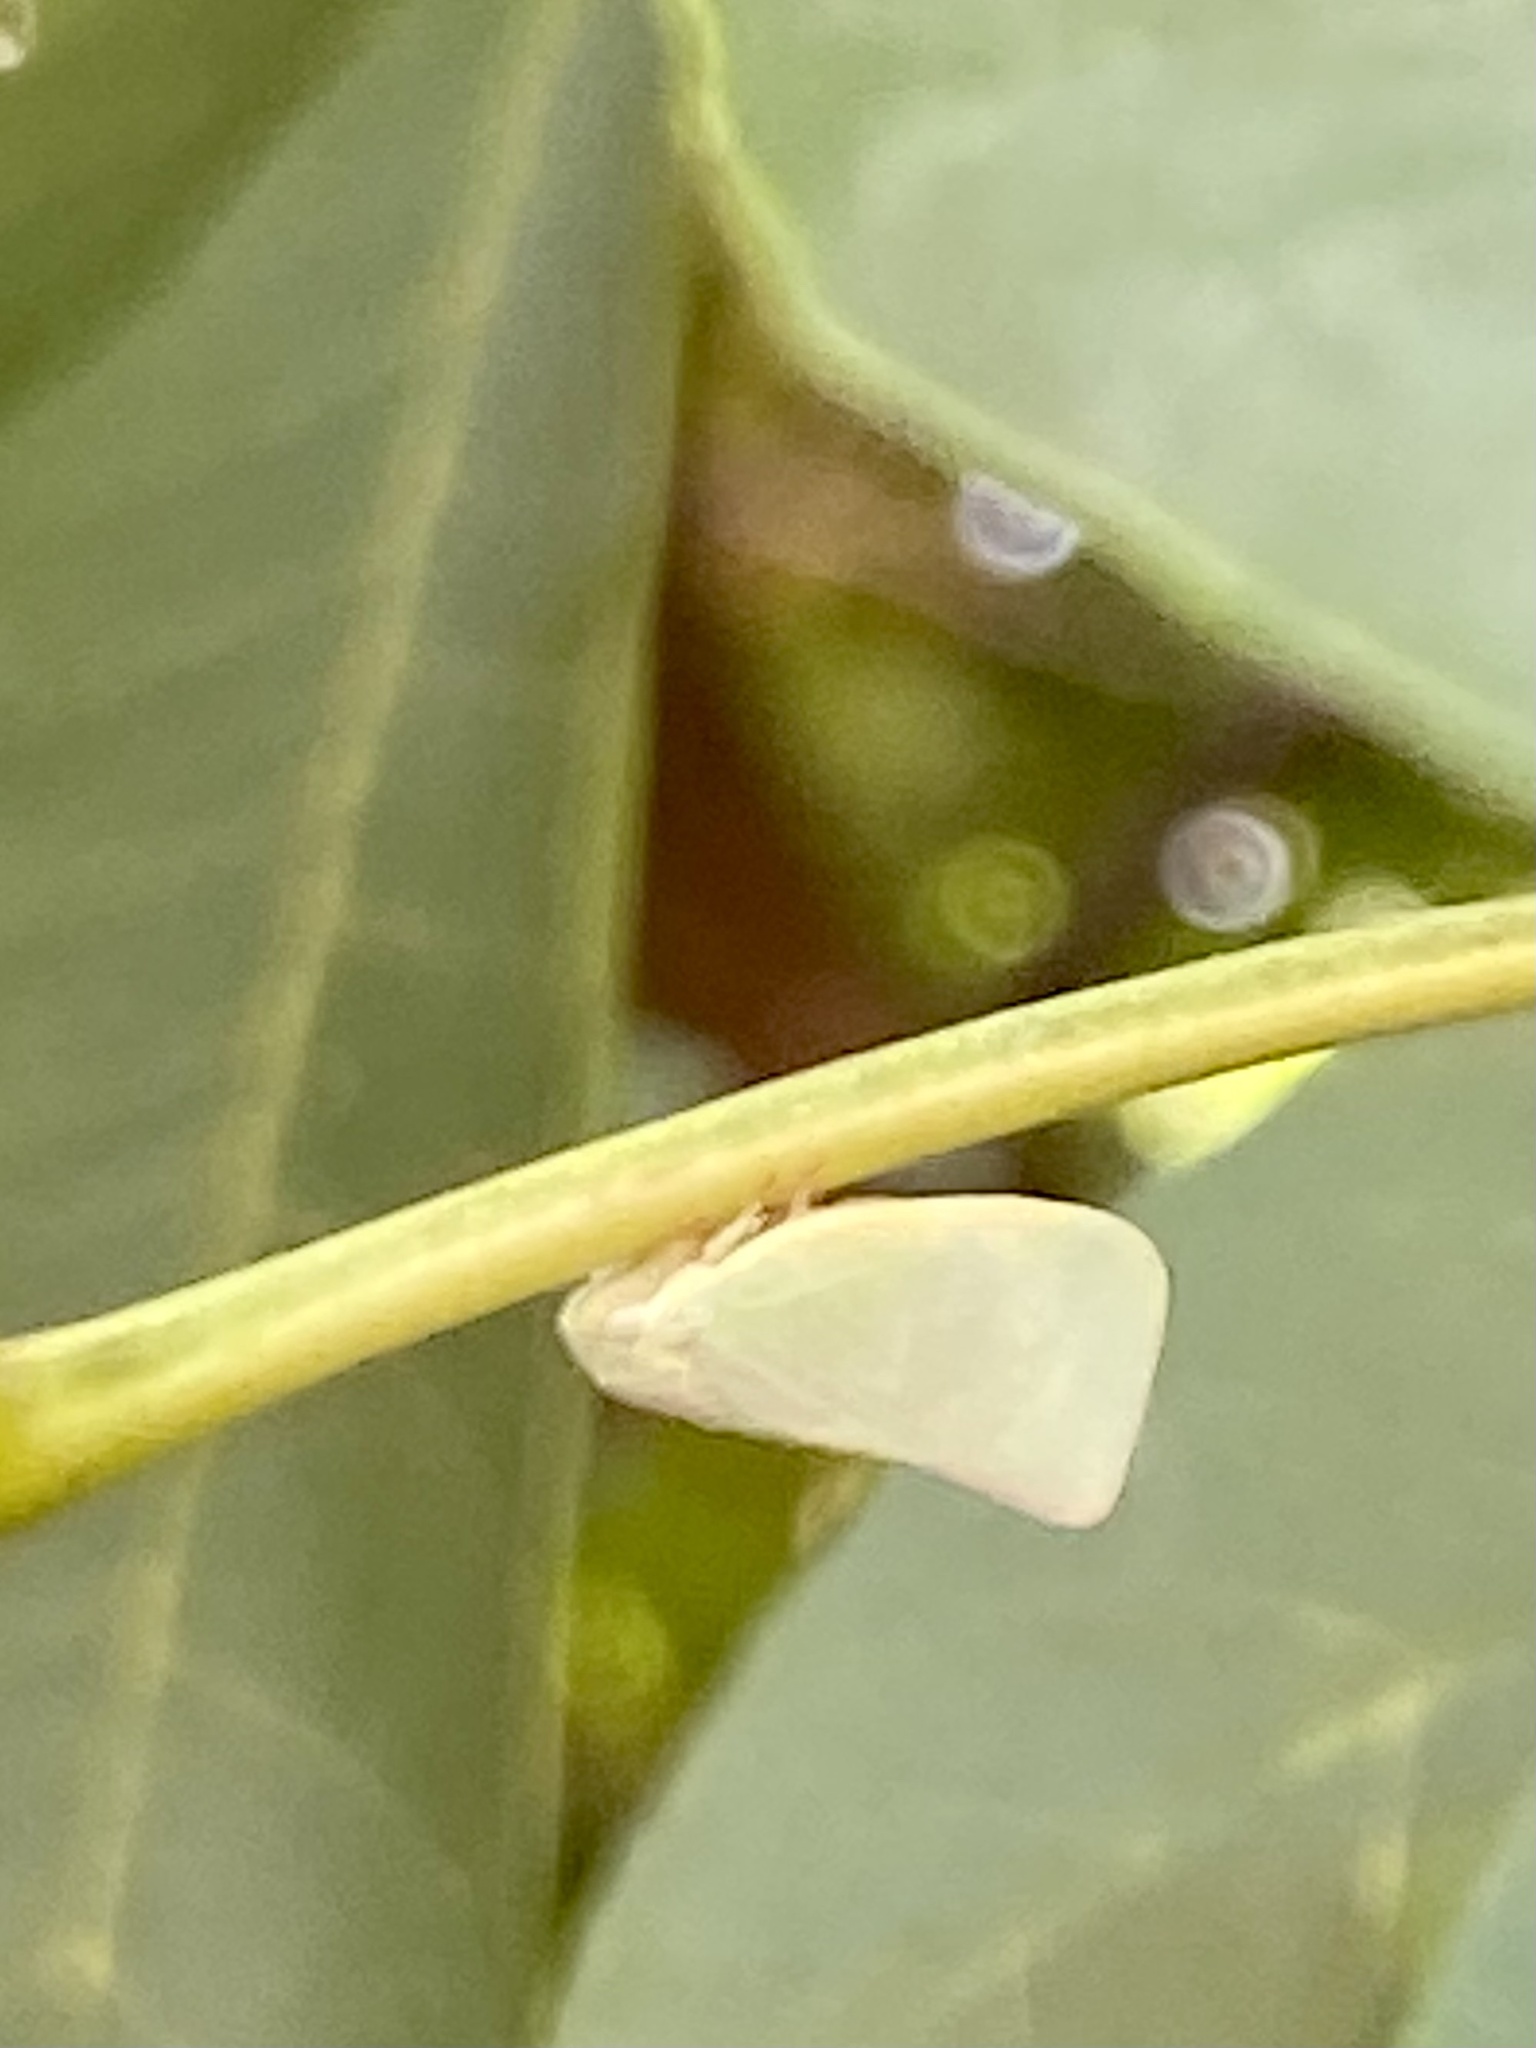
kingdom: Animalia
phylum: Arthropoda
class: Insecta
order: Hemiptera
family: Flatidae
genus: Flatormenis
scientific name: Flatormenis proxima
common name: Northern flatid planthopper
